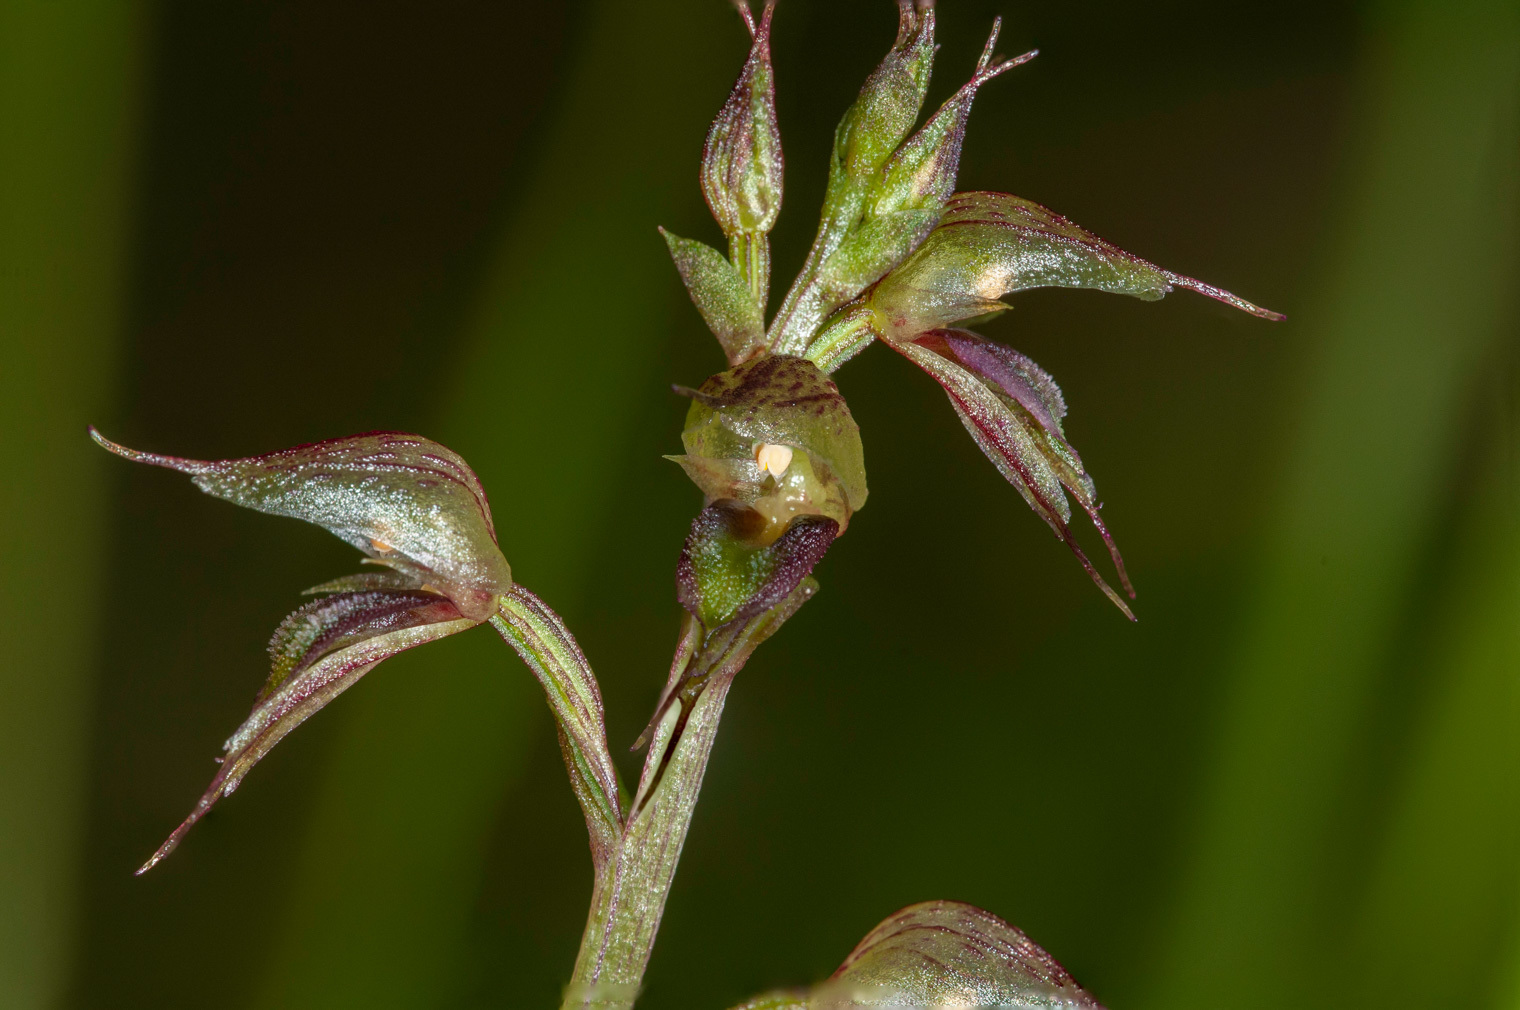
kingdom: Plantae
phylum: Tracheophyta
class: Liliopsida
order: Asparagales
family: Orchidaceae
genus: Acianthus
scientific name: Acianthus fornicatus
